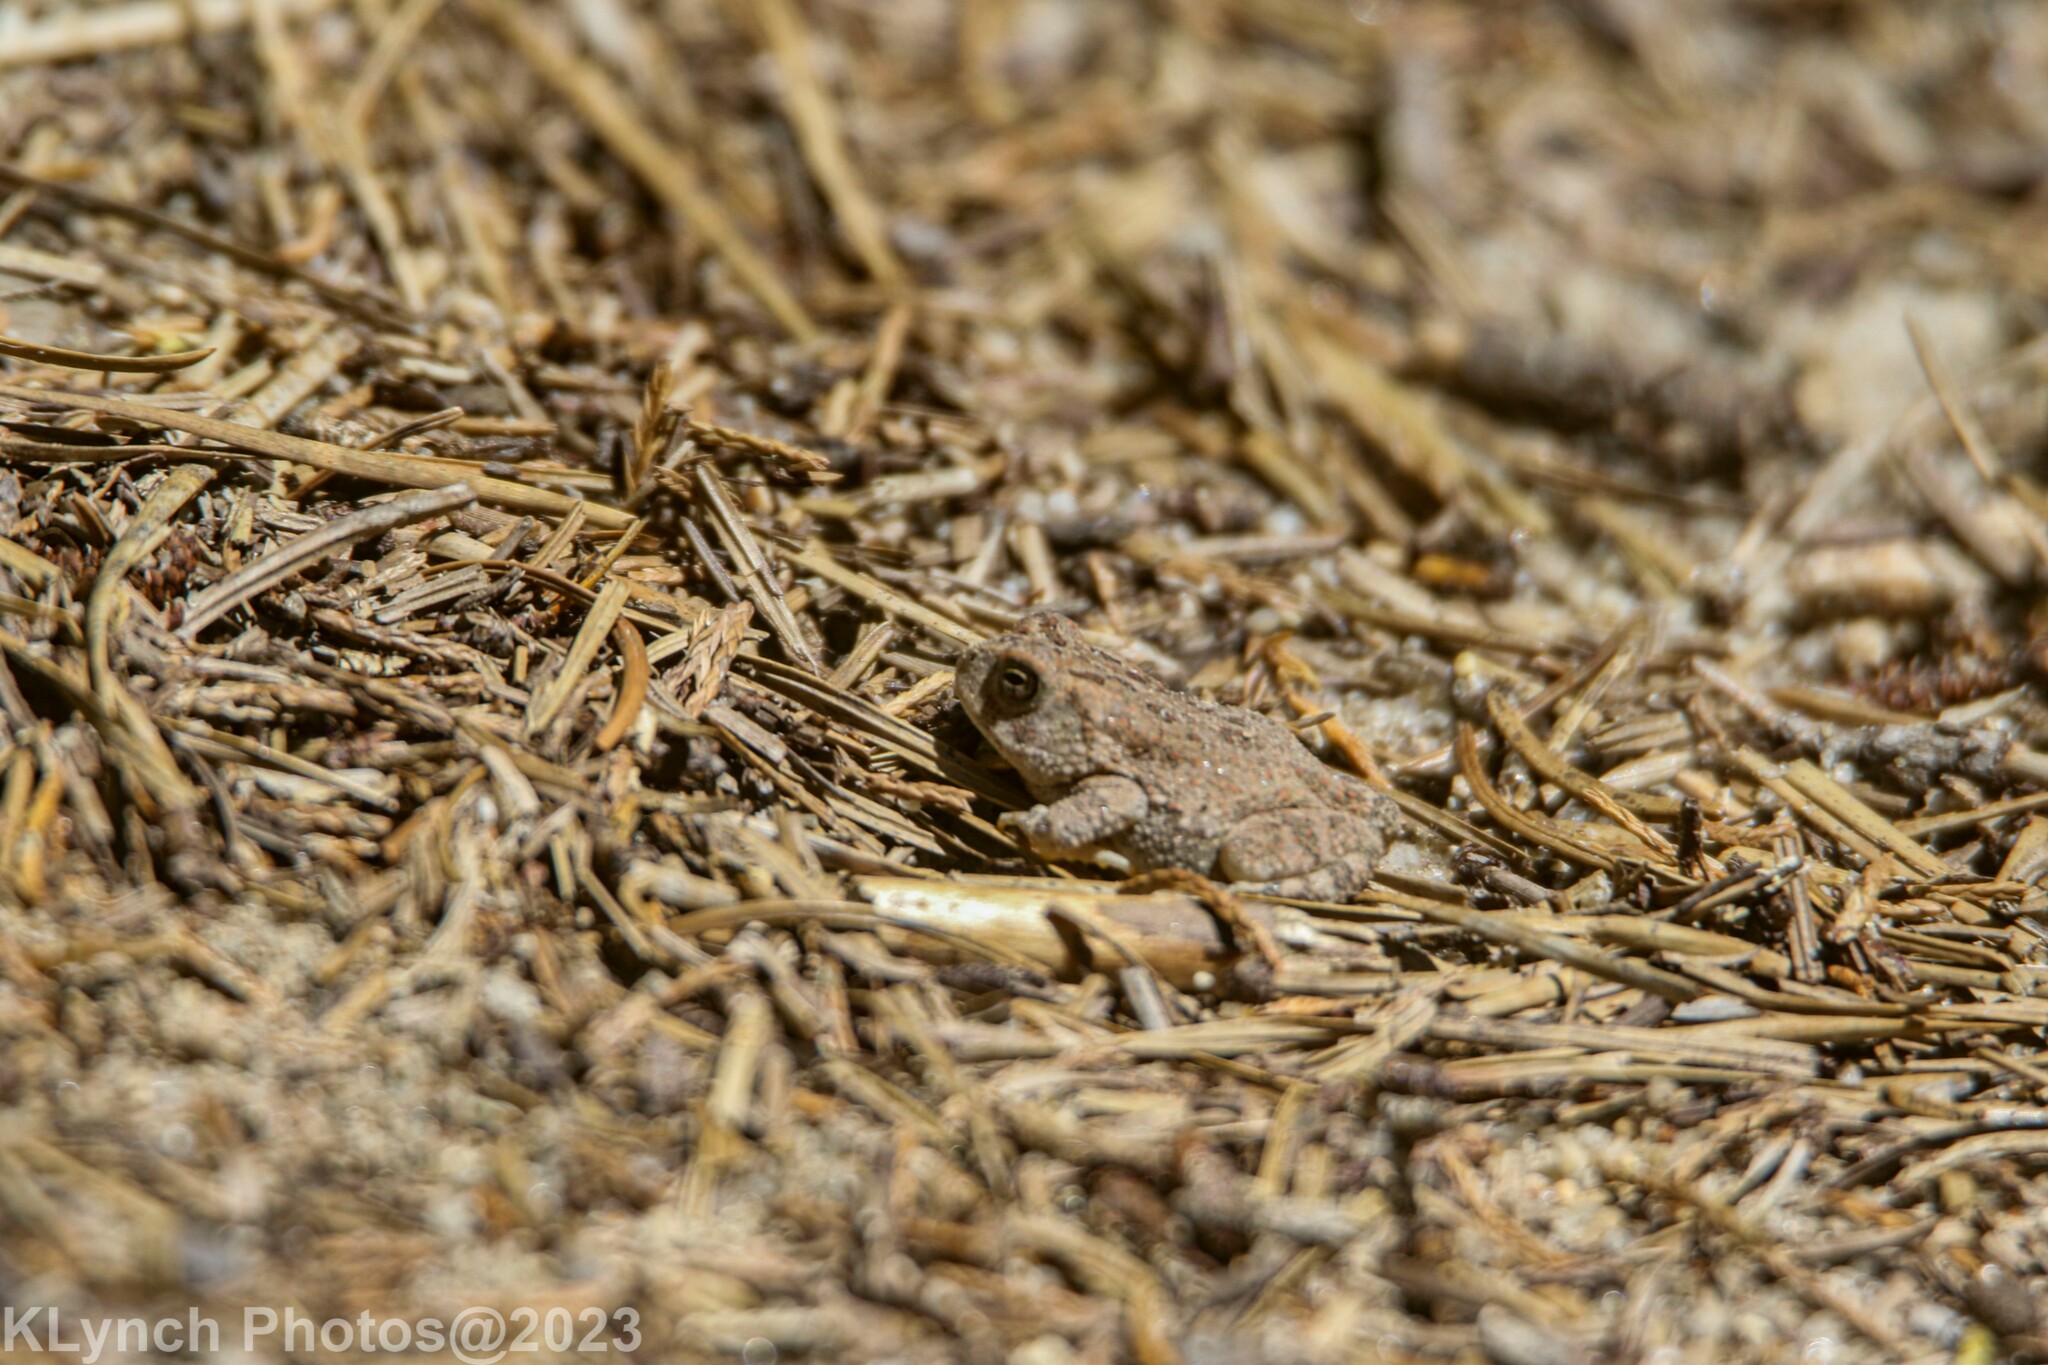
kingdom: Animalia
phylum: Chordata
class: Amphibia
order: Anura
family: Bufonidae
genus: Anaxyrus
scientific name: Anaxyrus fowleri
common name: Fowler's toad
